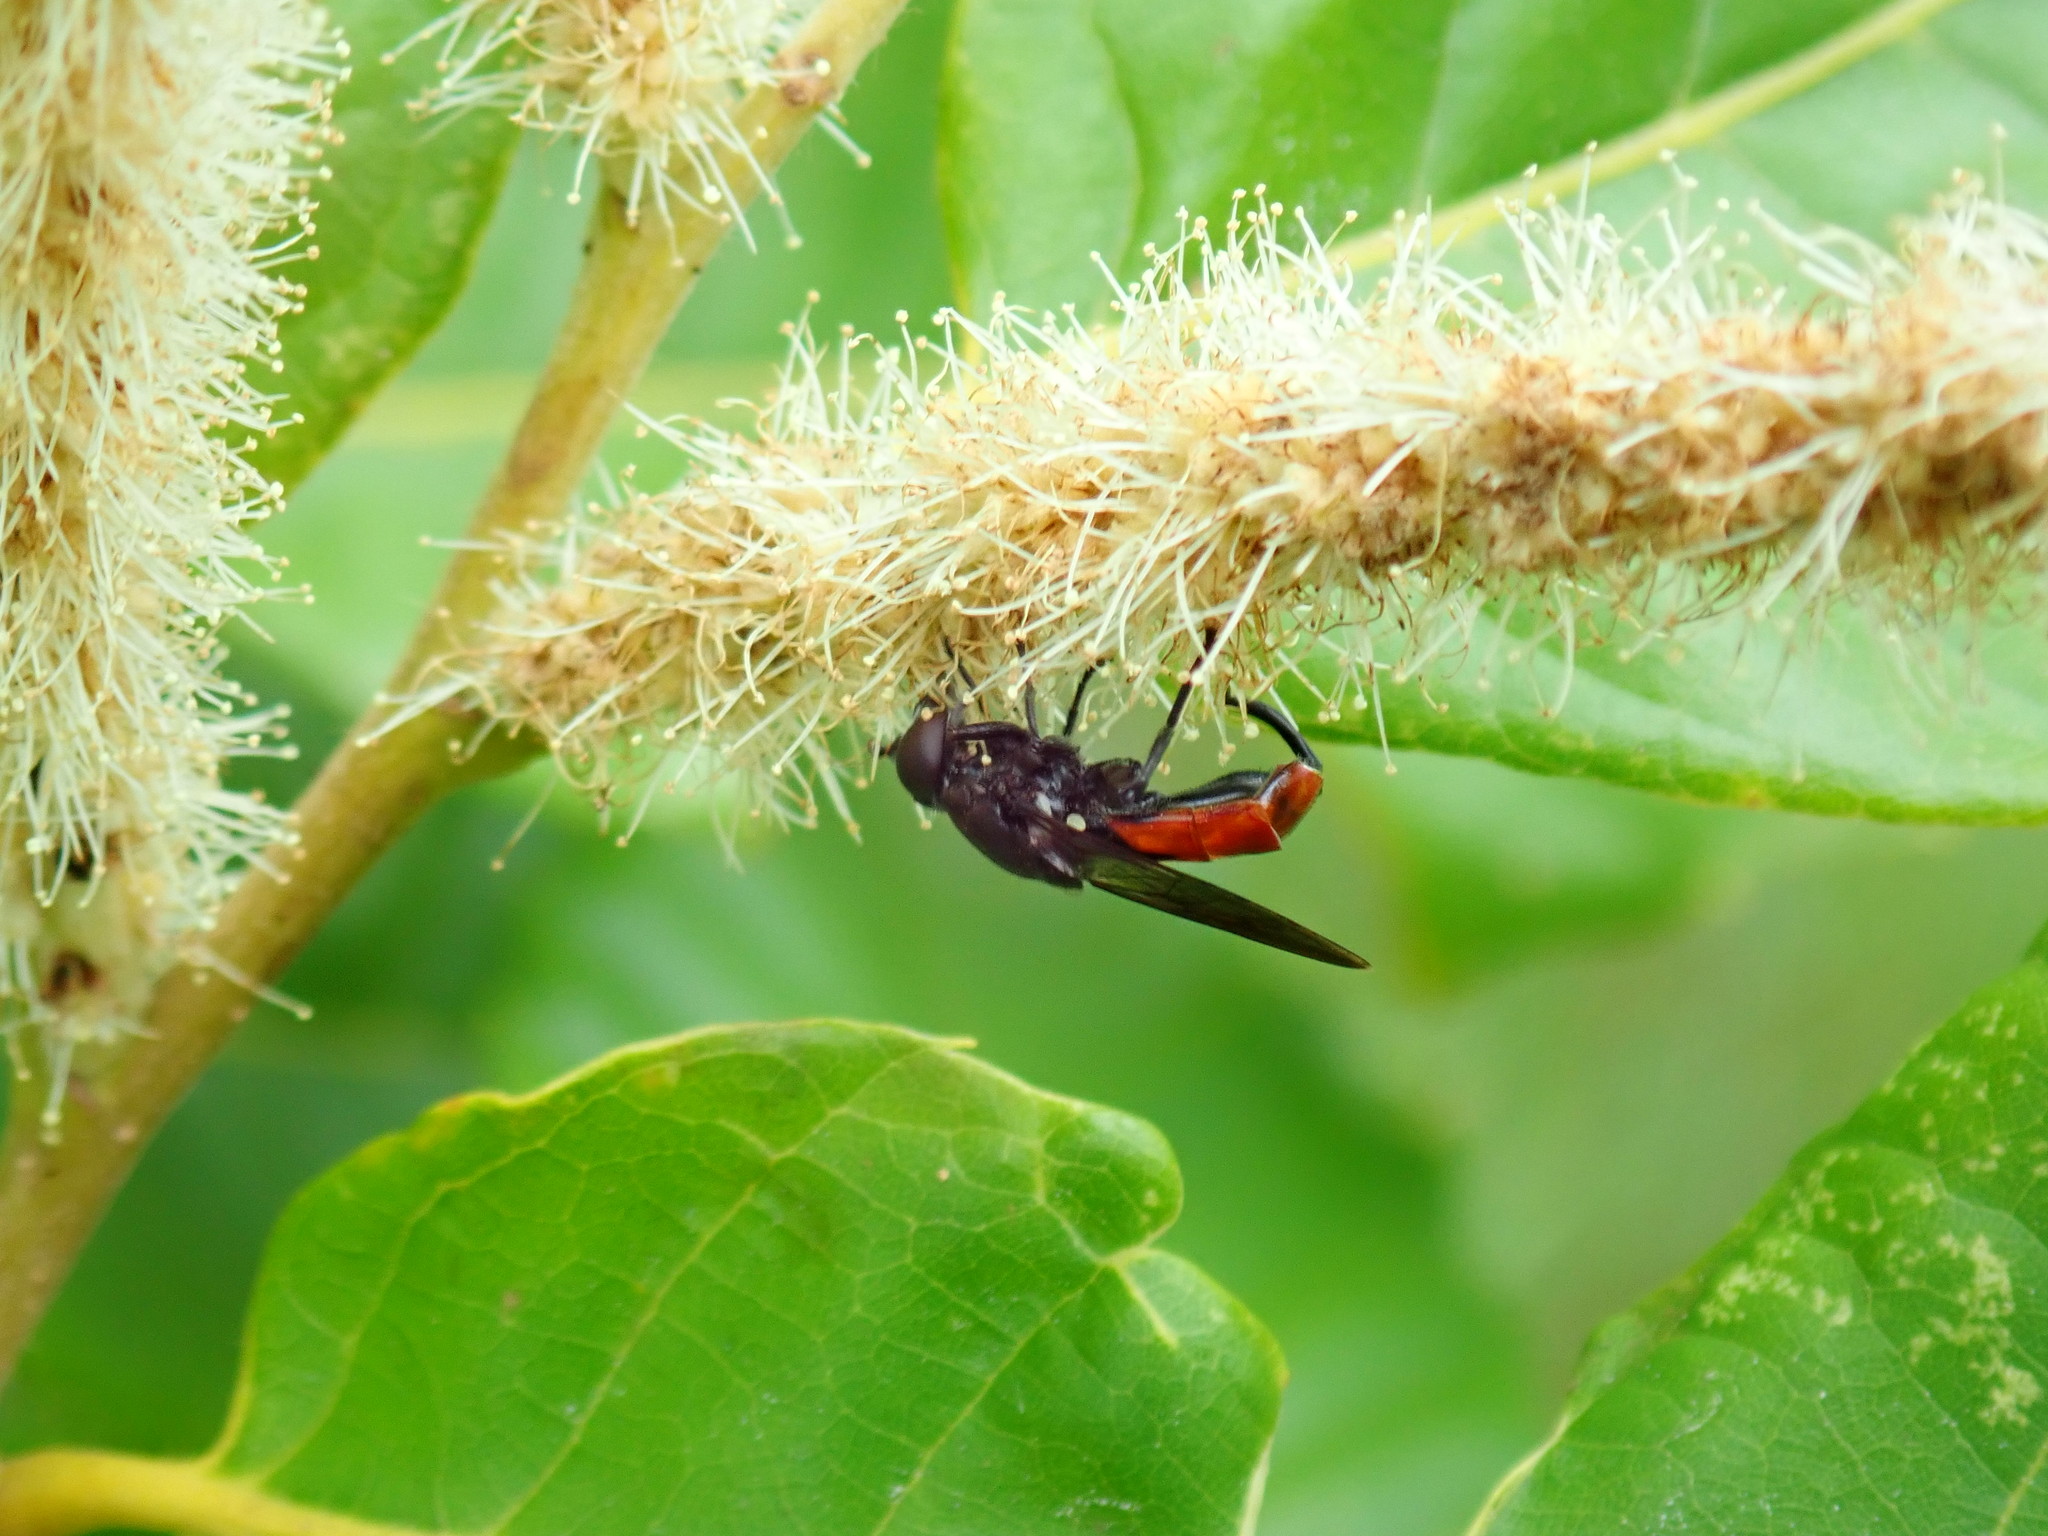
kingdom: Animalia
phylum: Arthropoda
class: Insecta
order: Diptera
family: Syrphidae
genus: Chalcosyrphus
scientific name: Chalcosyrphus piger
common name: Short-haired leafwalker
